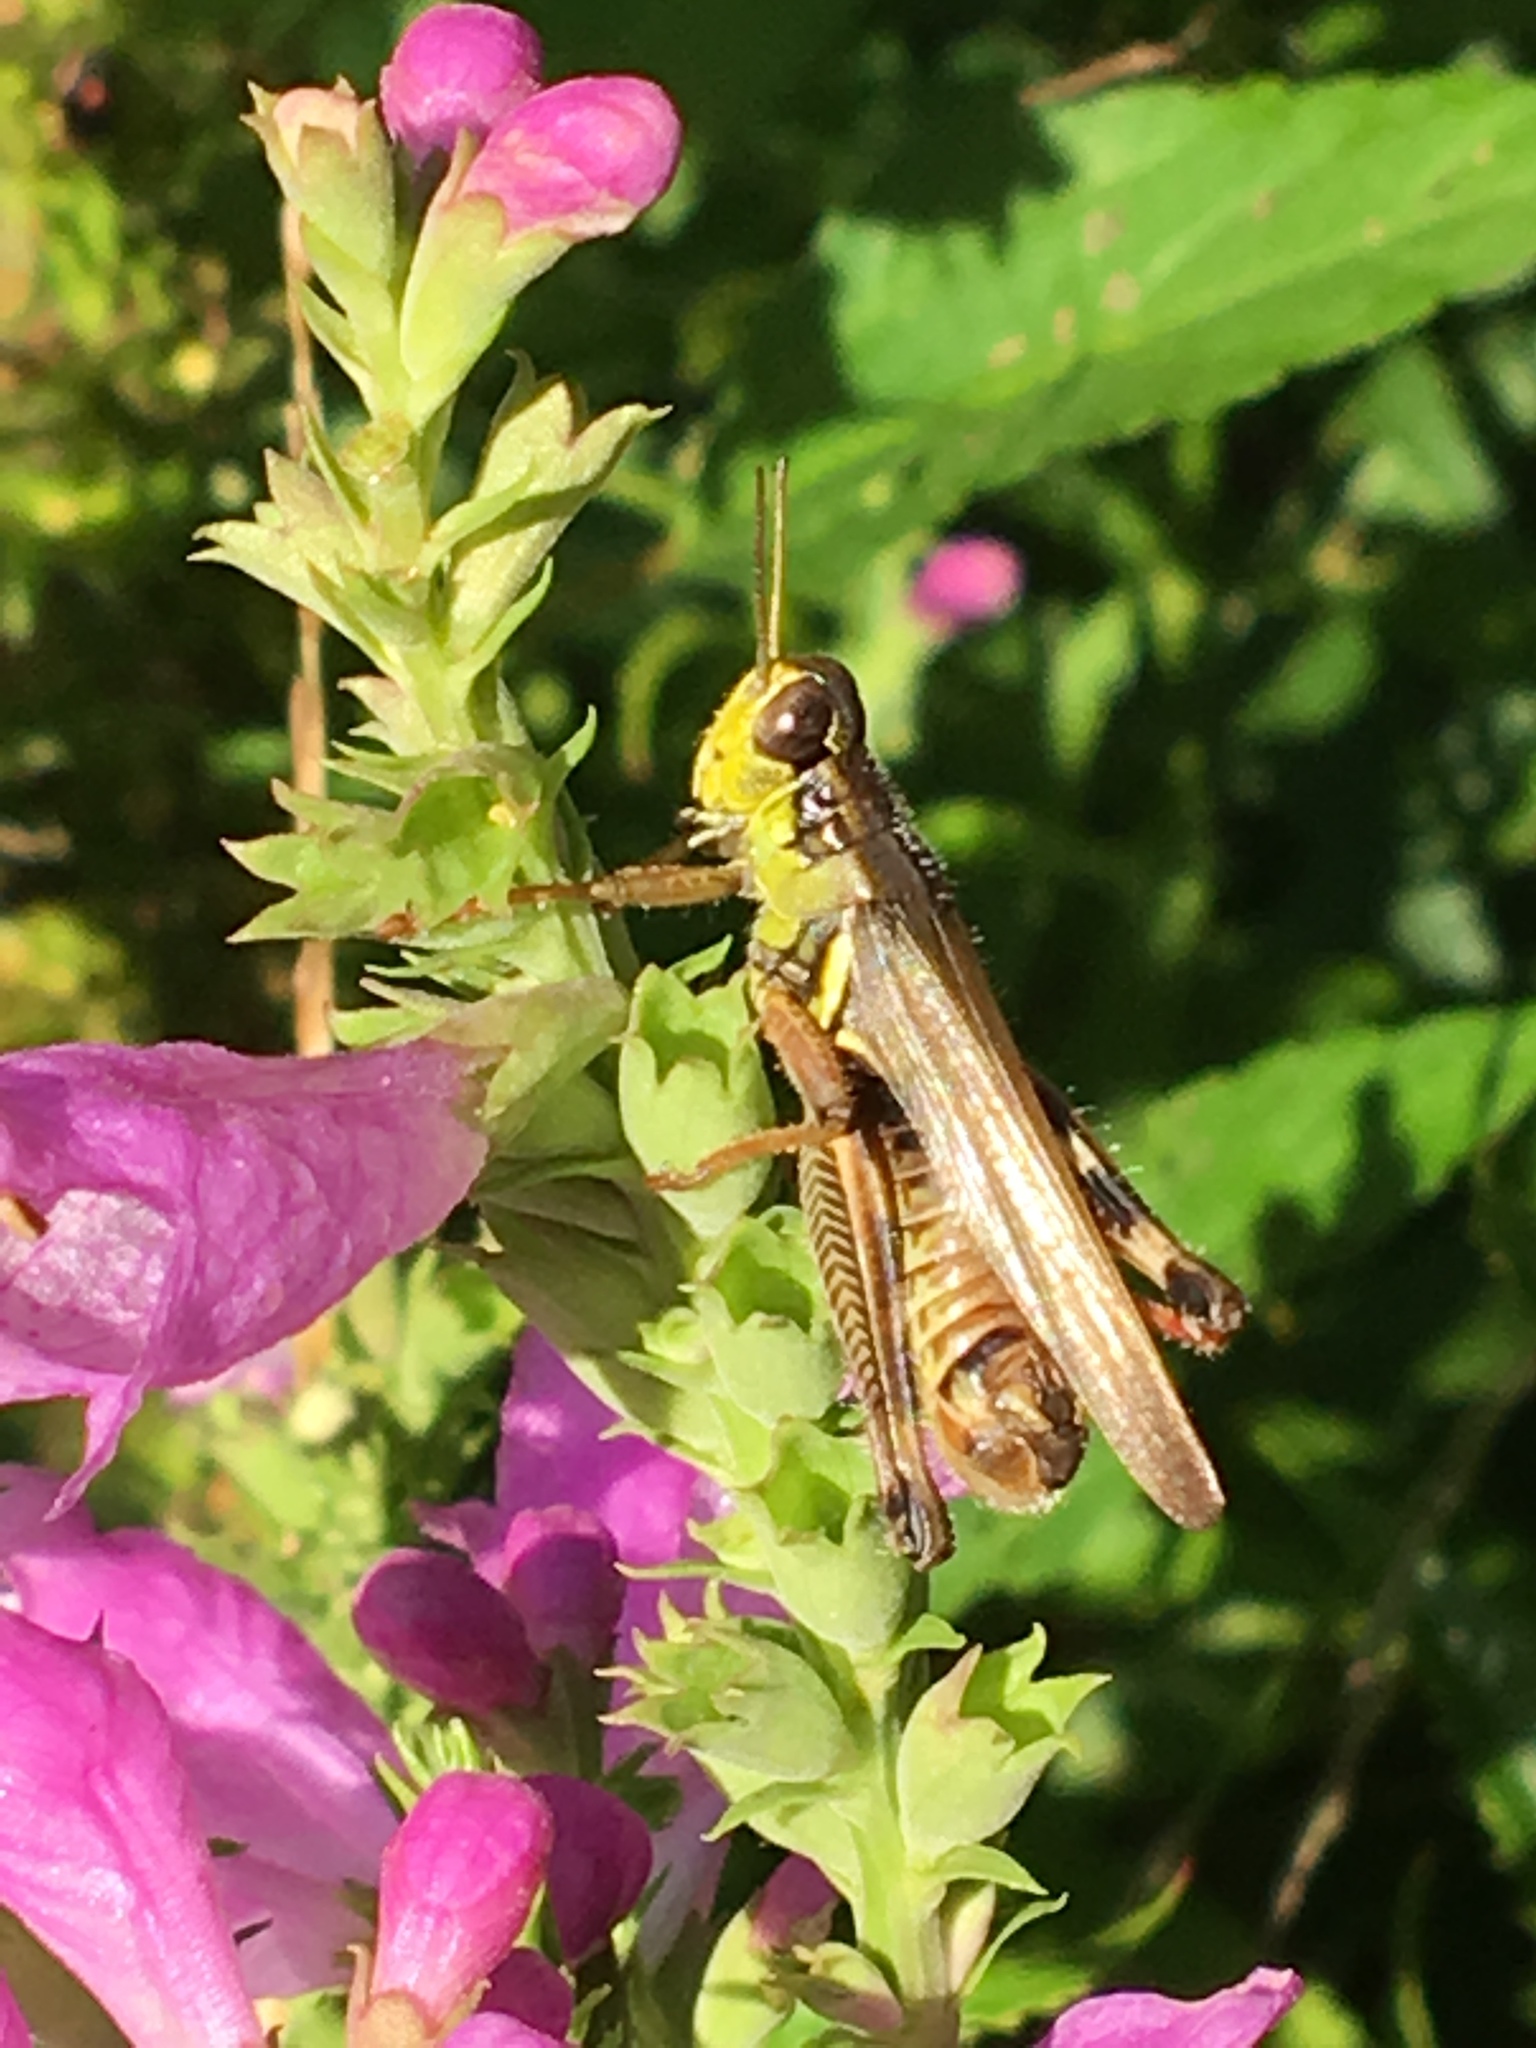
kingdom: Animalia
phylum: Arthropoda
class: Insecta
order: Orthoptera
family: Acrididae
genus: Melanoplus
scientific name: Melanoplus femurrubrum
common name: Red-legged grasshopper
